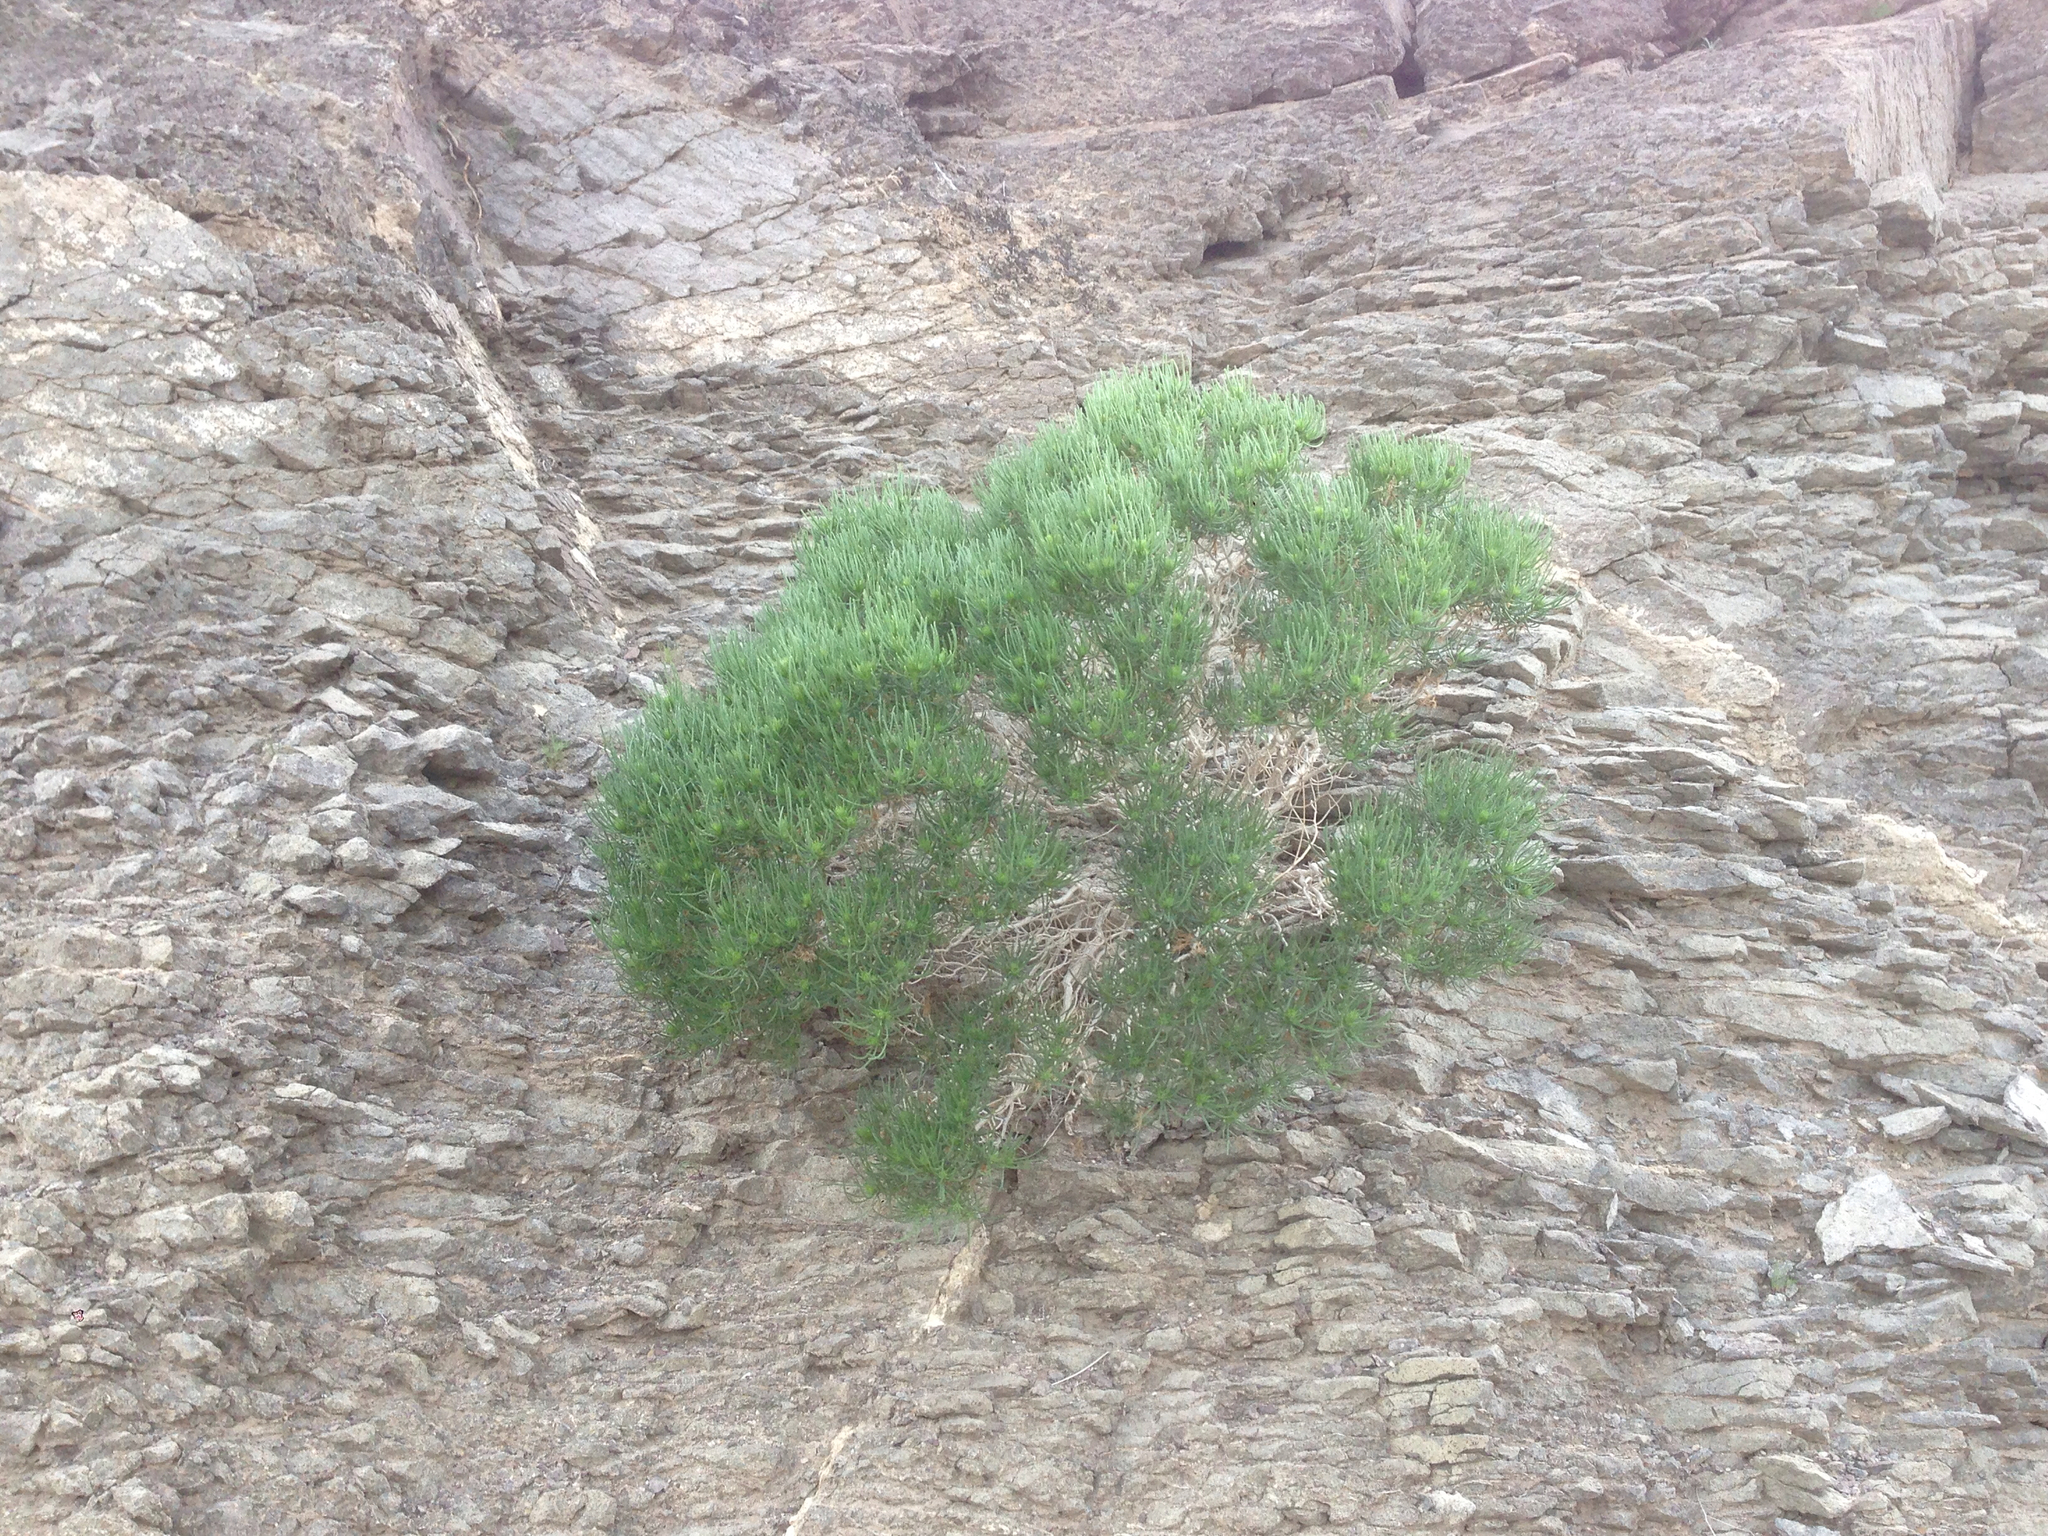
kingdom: Plantae
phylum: Tracheophyta
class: Magnoliopsida
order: Asterales
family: Asteraceae
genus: Peucephyllum
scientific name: Peucephyllum schottii
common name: Pygmy-cedar
